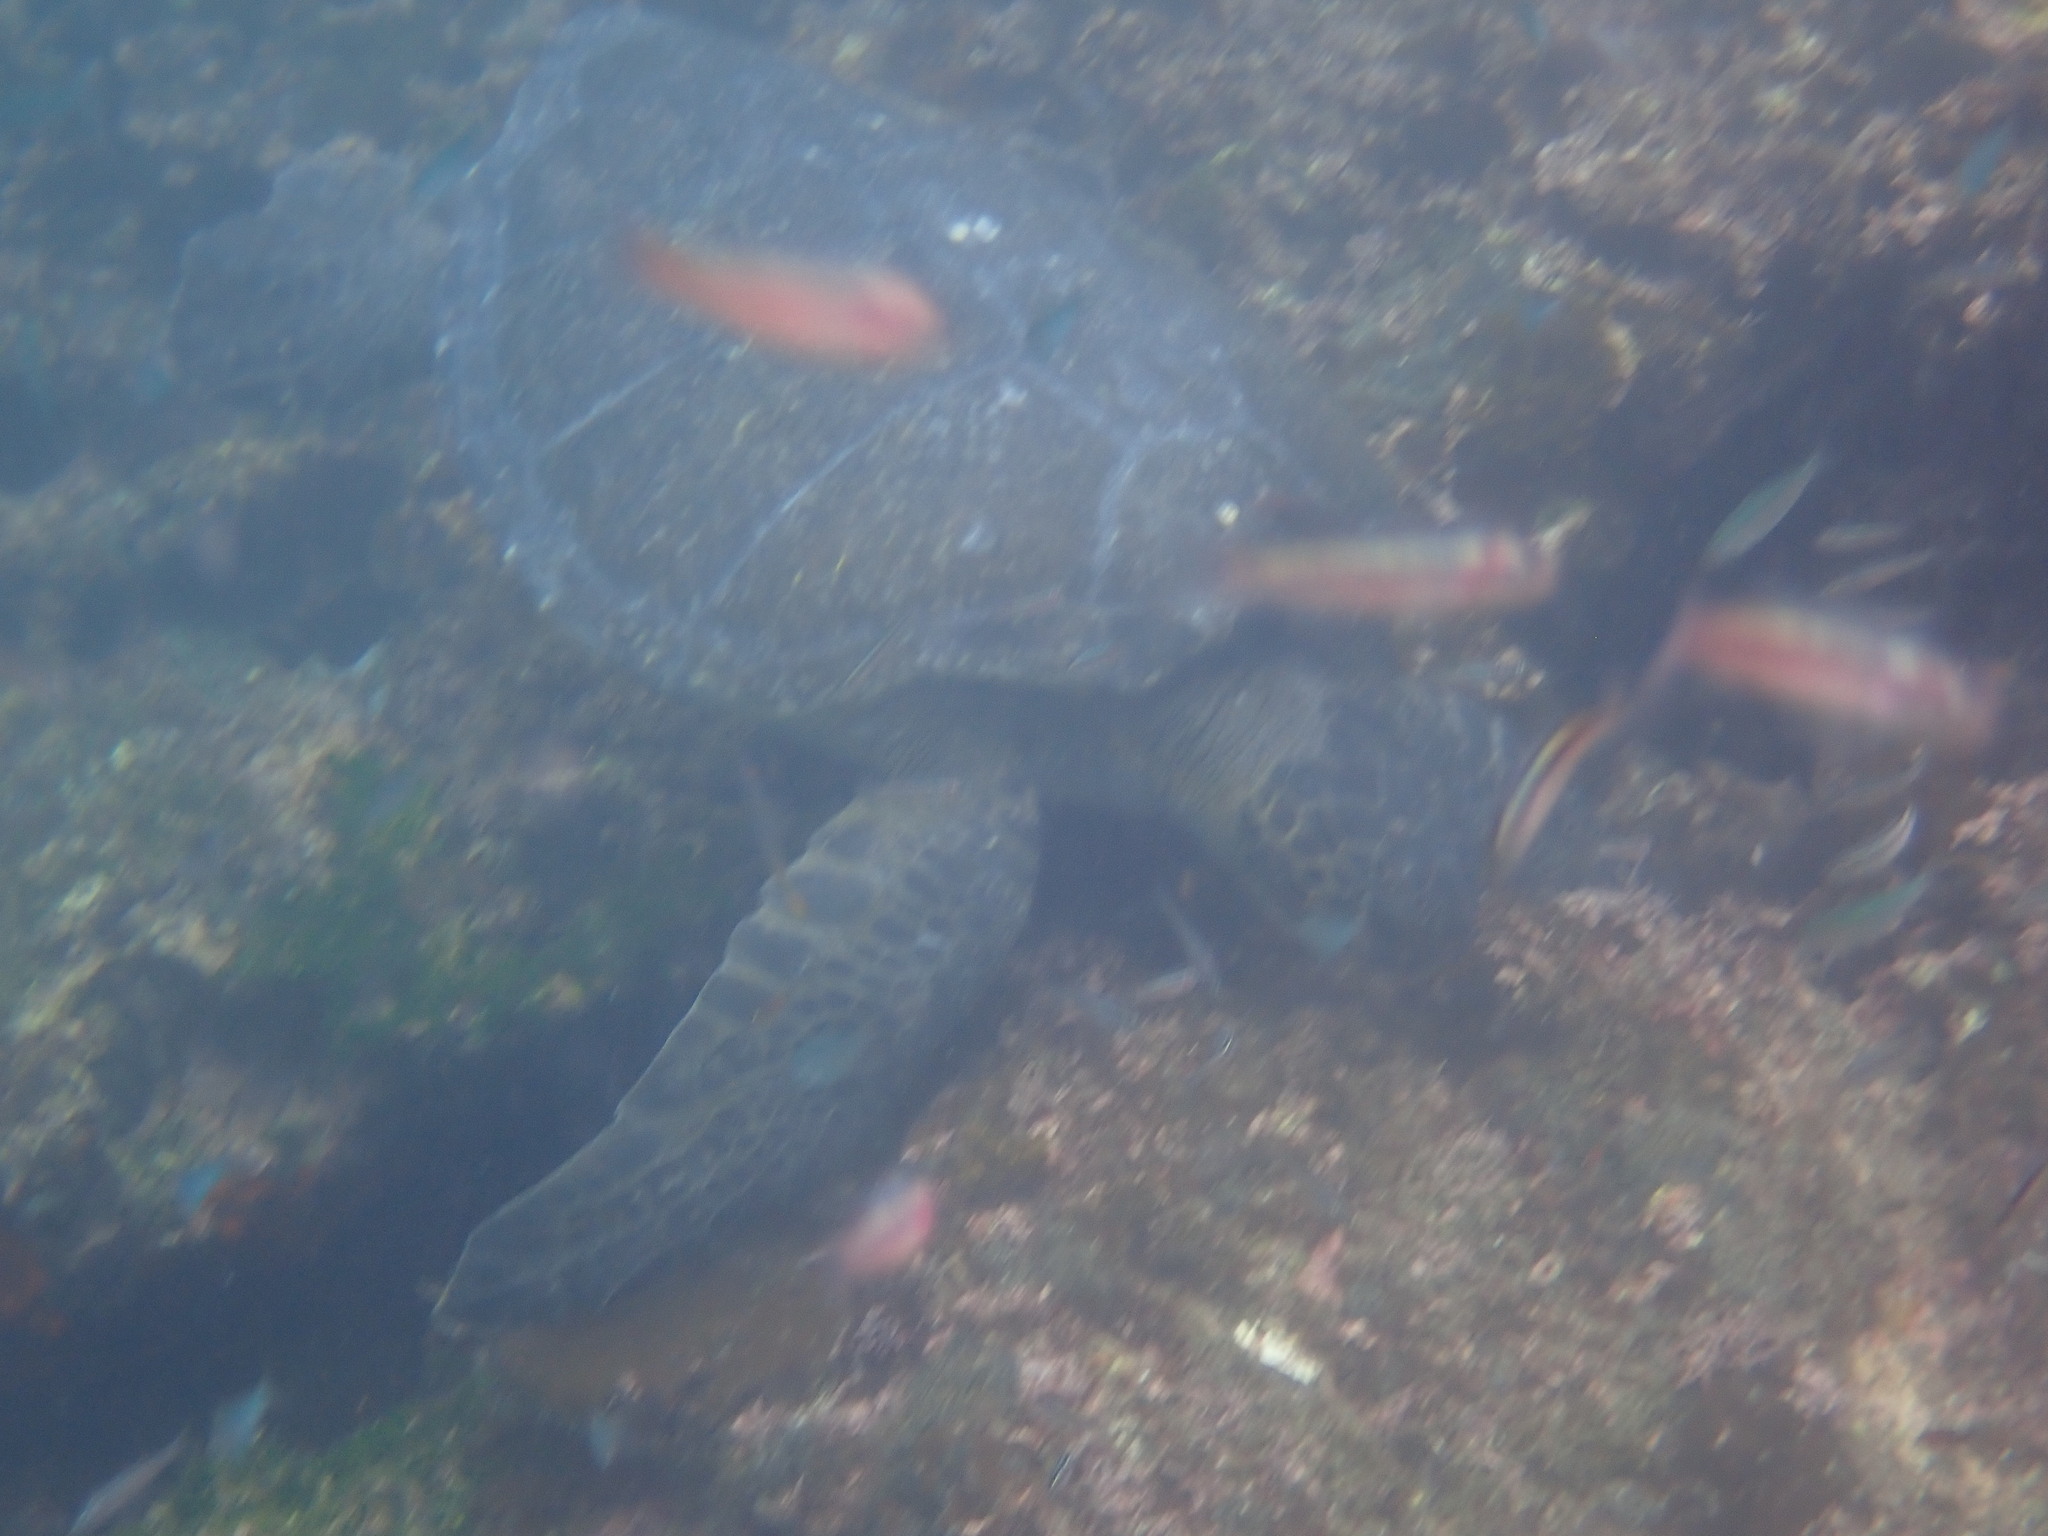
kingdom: Animalia
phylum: Chordata
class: Testudines
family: Cheloniidae
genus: Chelonia
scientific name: Chelonia mydas
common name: Green turtle
